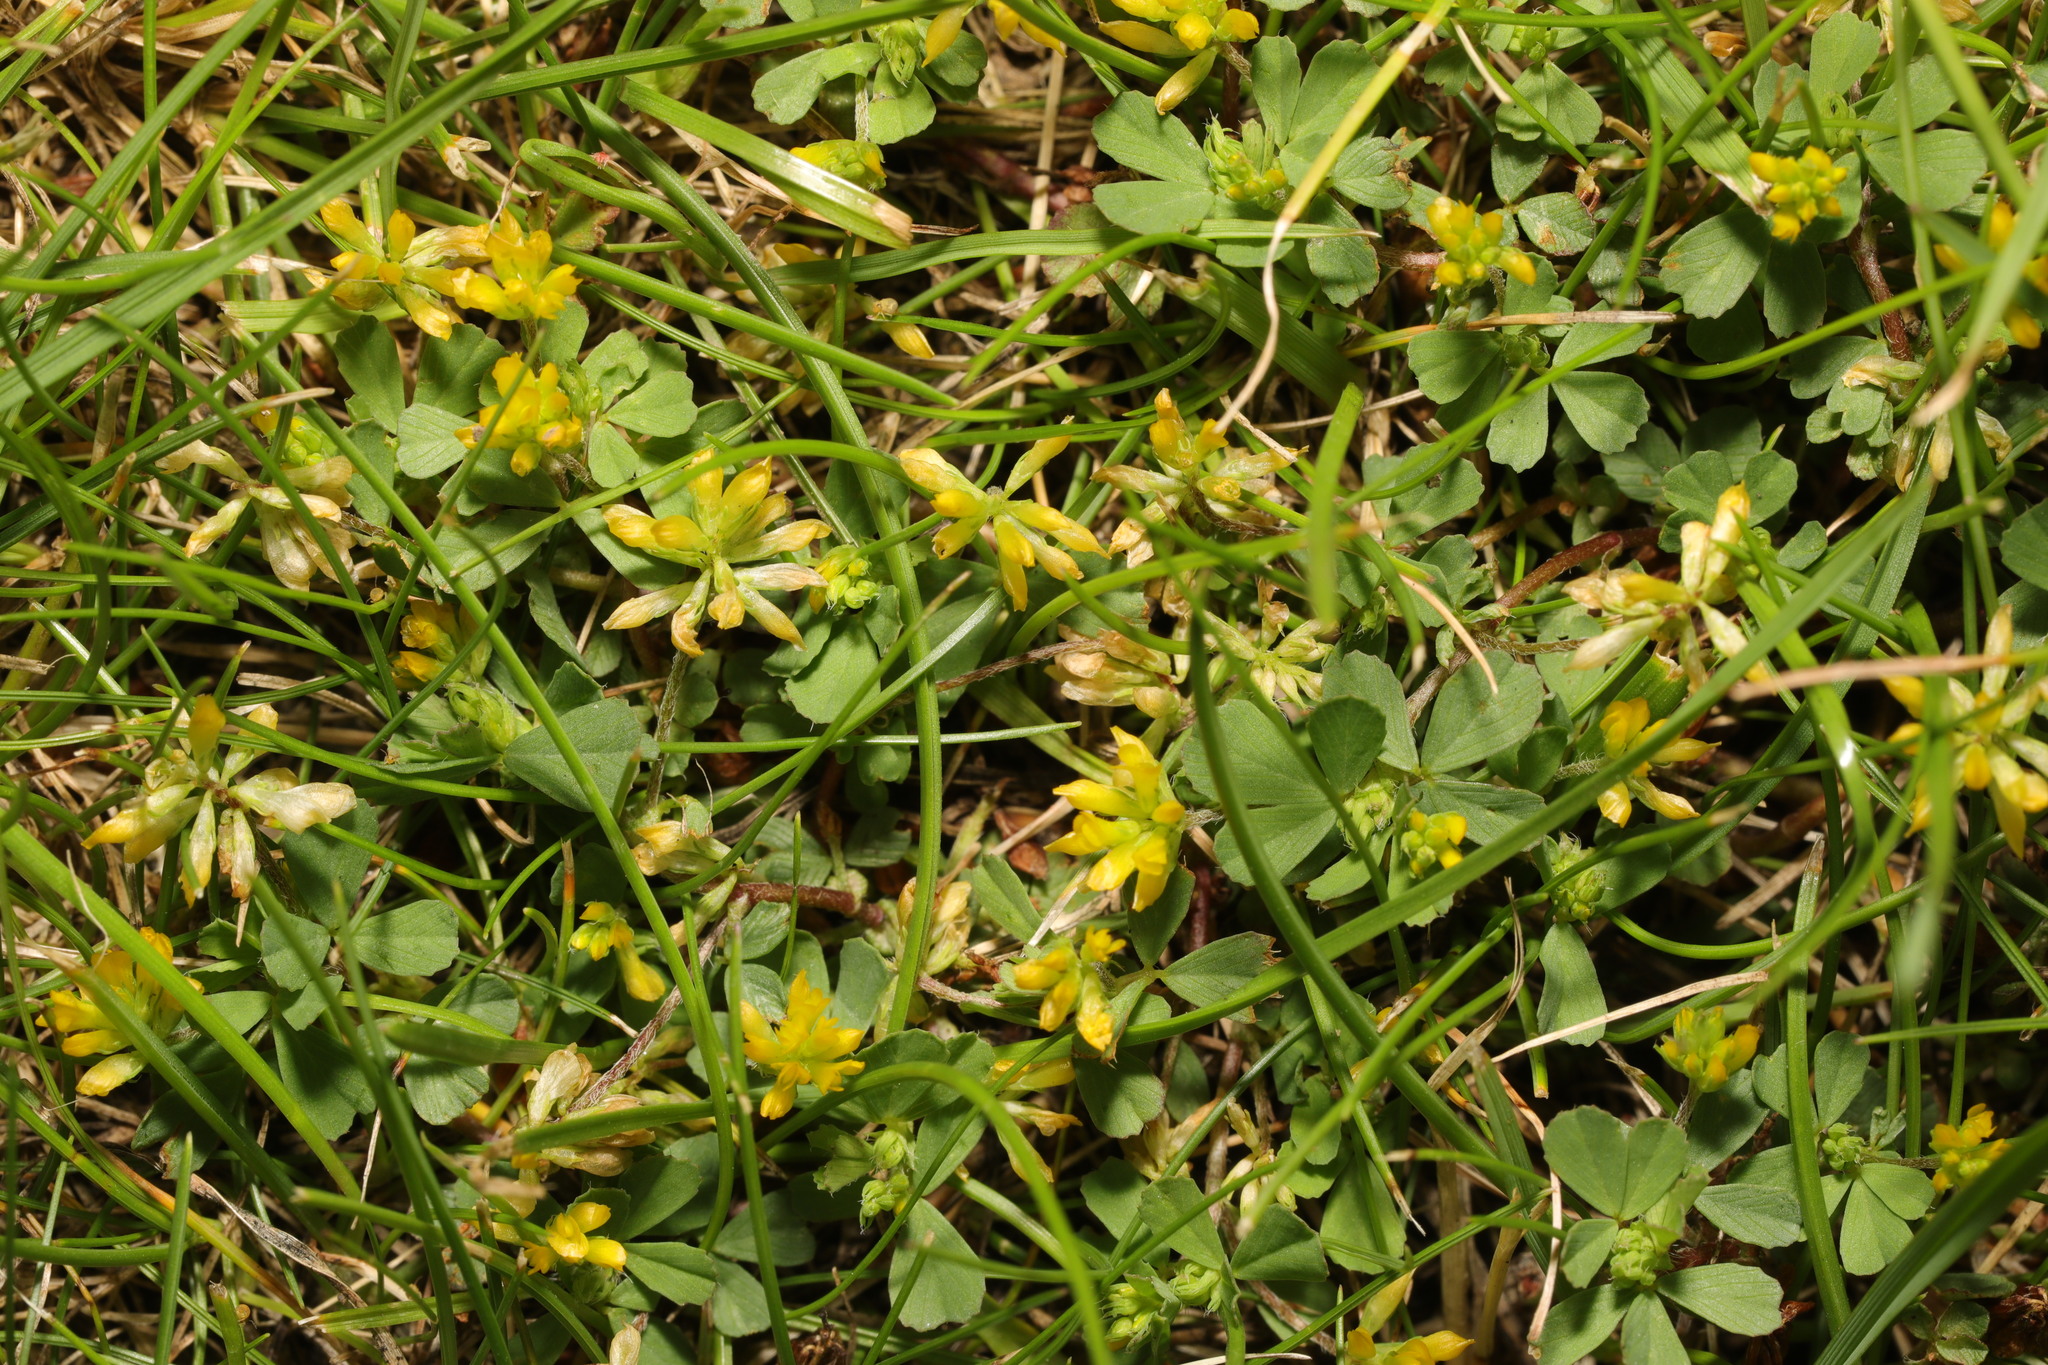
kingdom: Plantae
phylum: Tracheophyta
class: Magnoliopsida
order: Fabales
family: Fabaceae
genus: Trifolium
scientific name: Trifolium dubium
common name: Suckling clover
